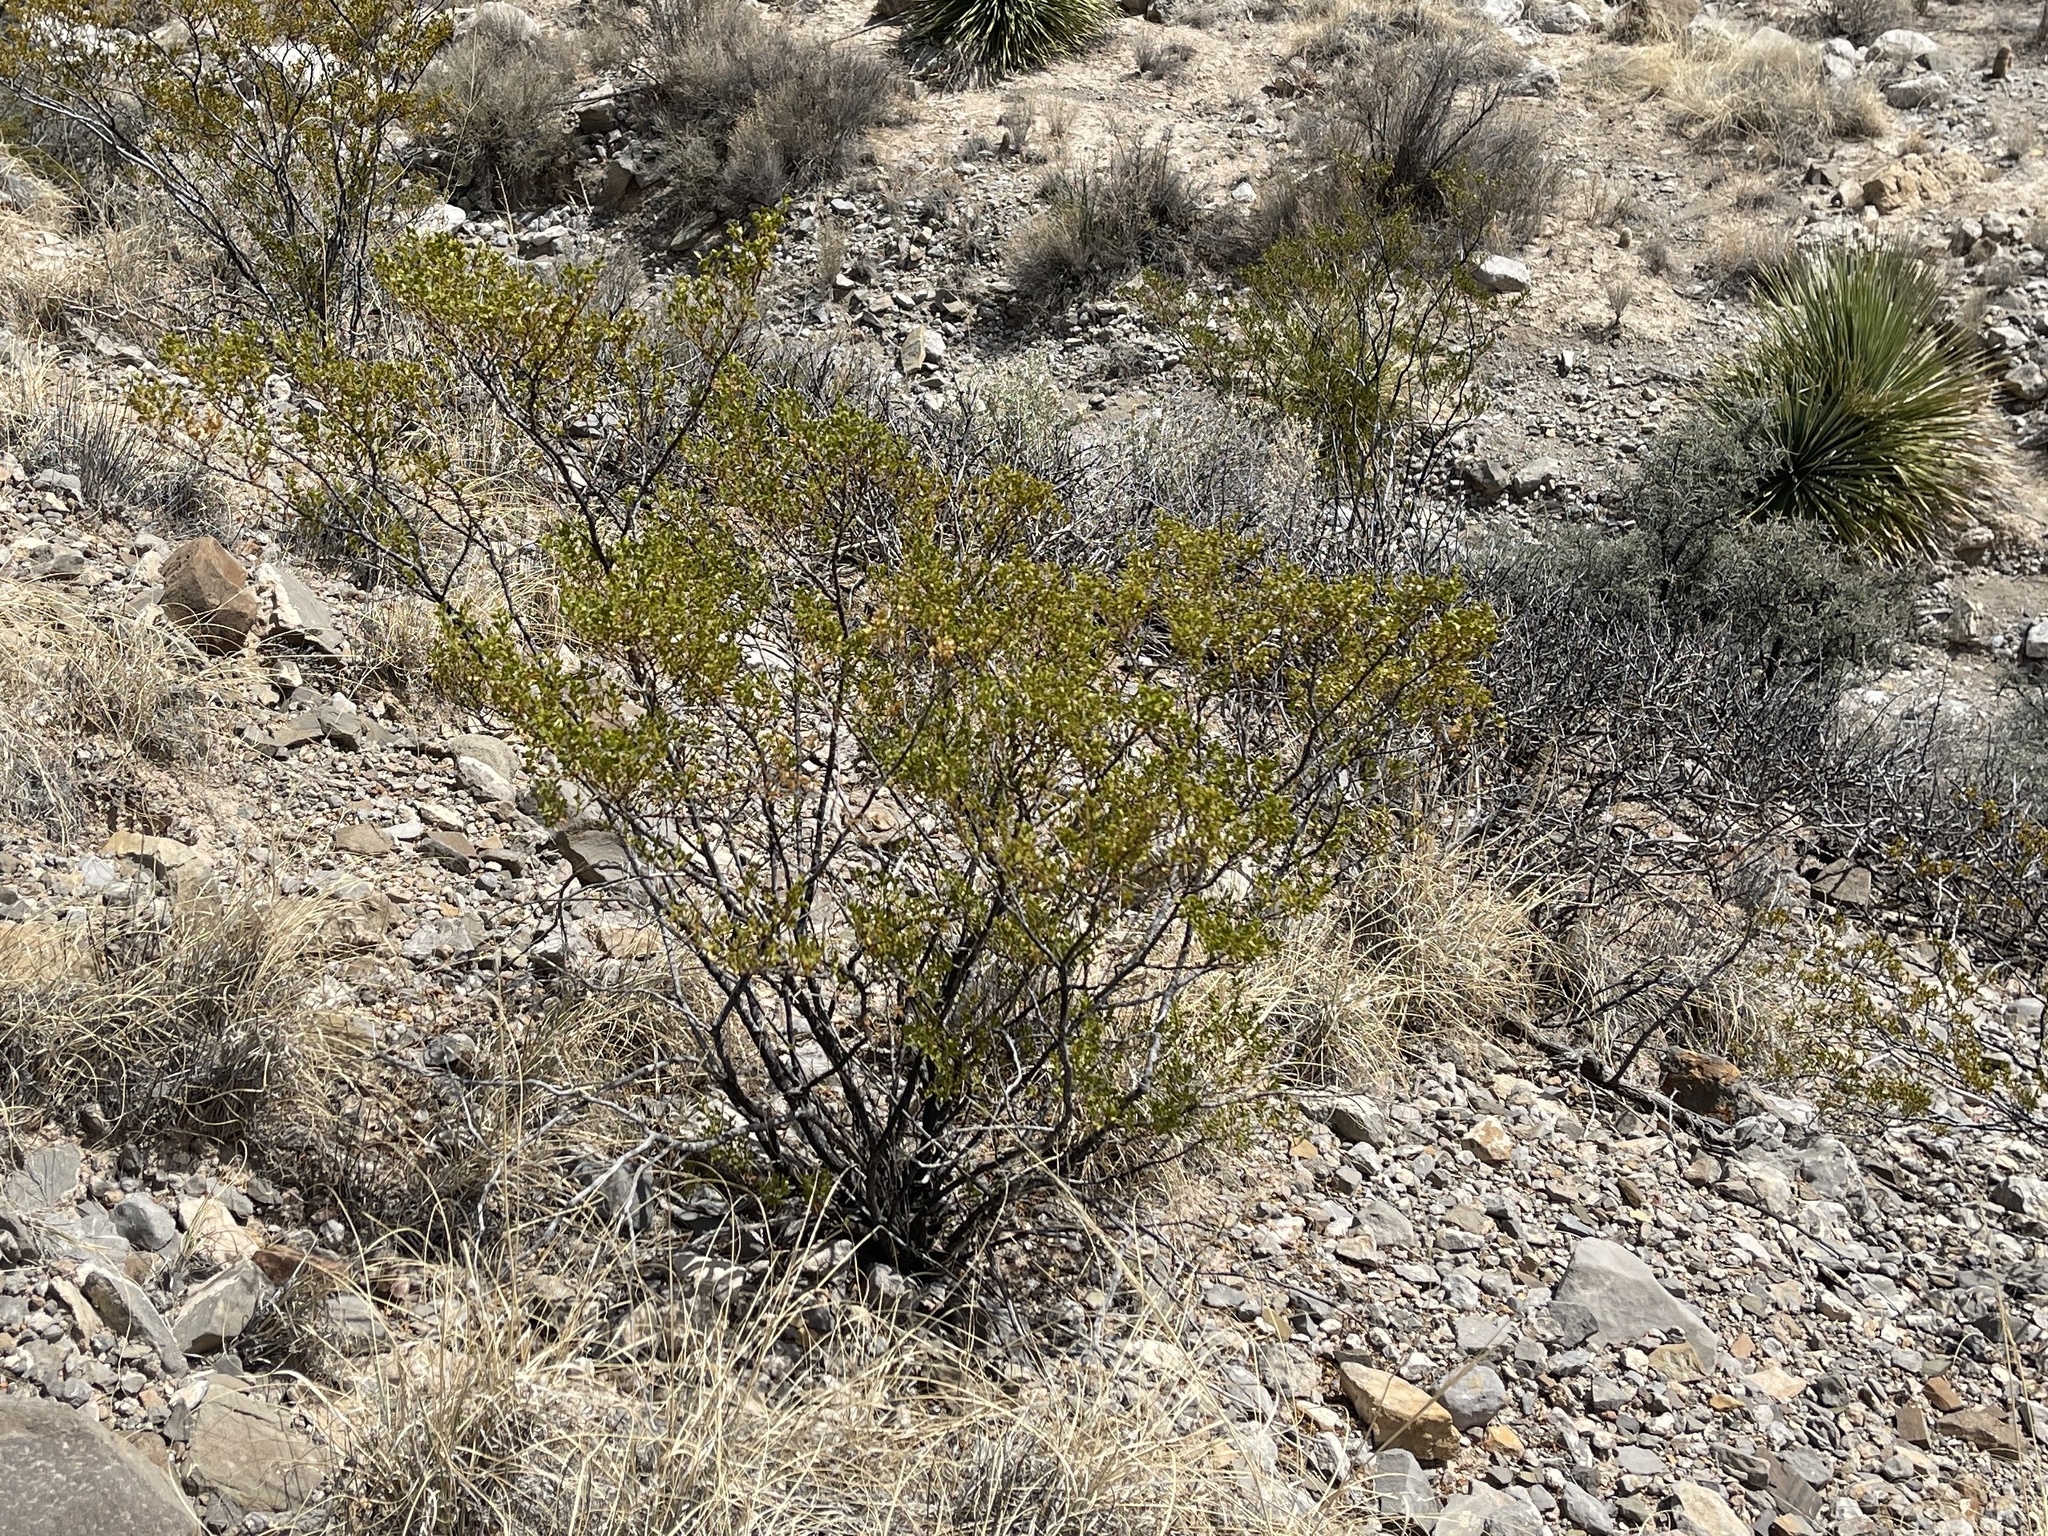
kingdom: Plantae
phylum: Tracheophyta
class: Magnoliopsida
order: Zygophyllales
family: Zygophyllaceae
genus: Larrea
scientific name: Larrea tridentata
